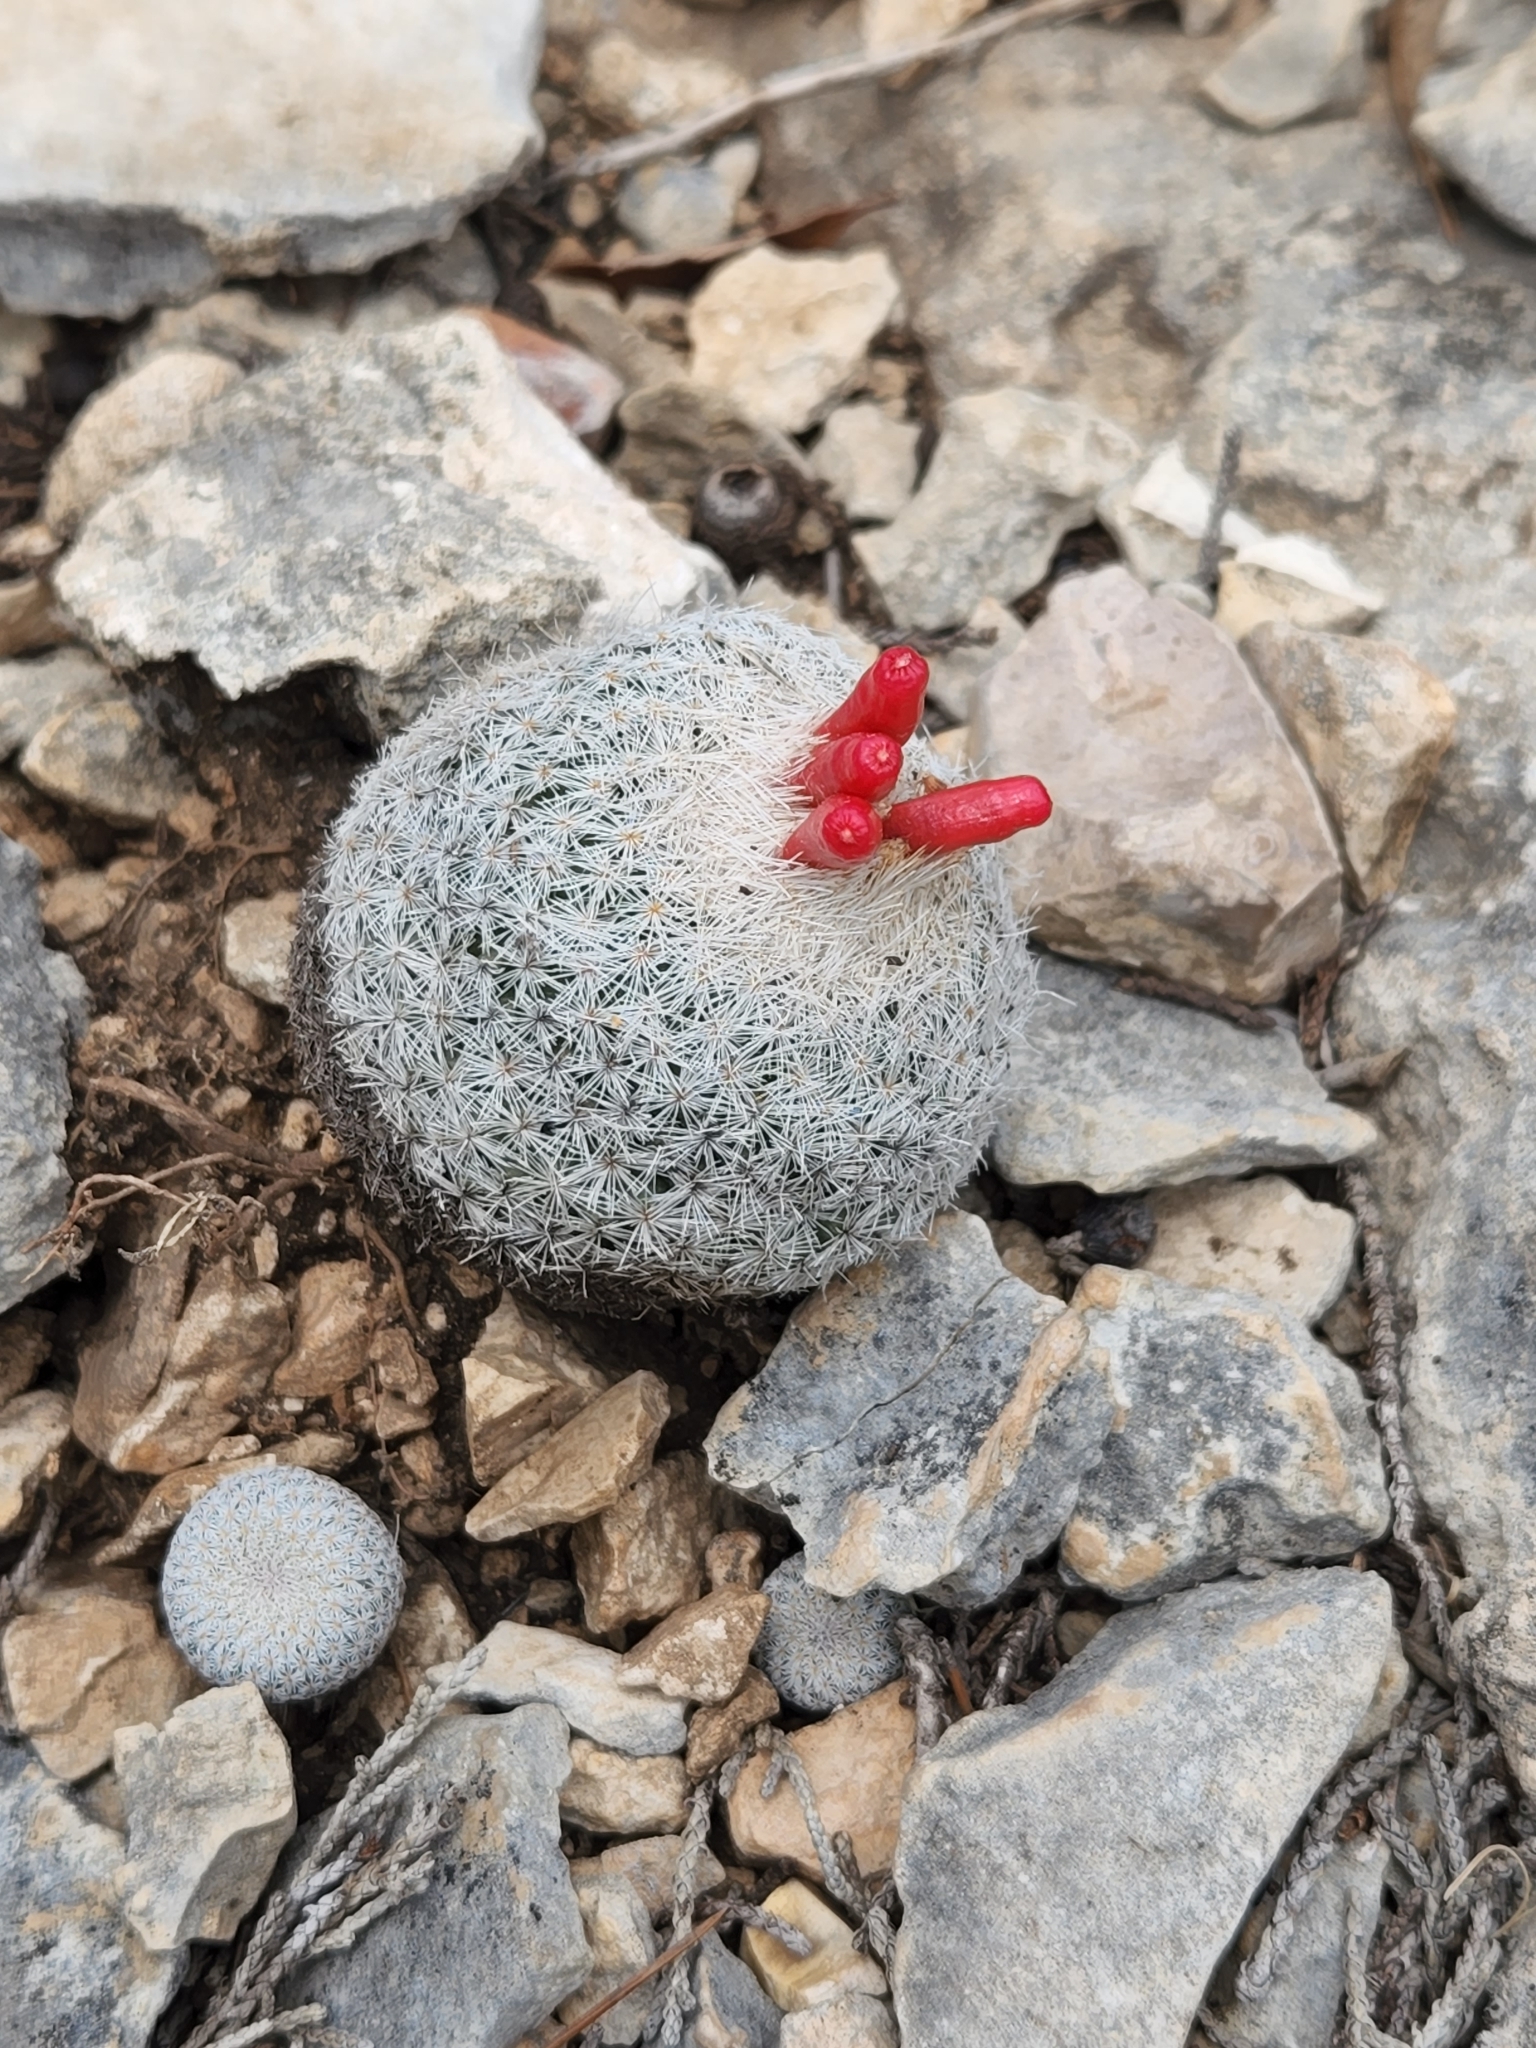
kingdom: Plantae
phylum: Tracheophyta
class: Magnoliopsida
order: Caryophyllales
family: Cactaceae
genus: Epithelantha
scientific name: Epithelantha micromeris
